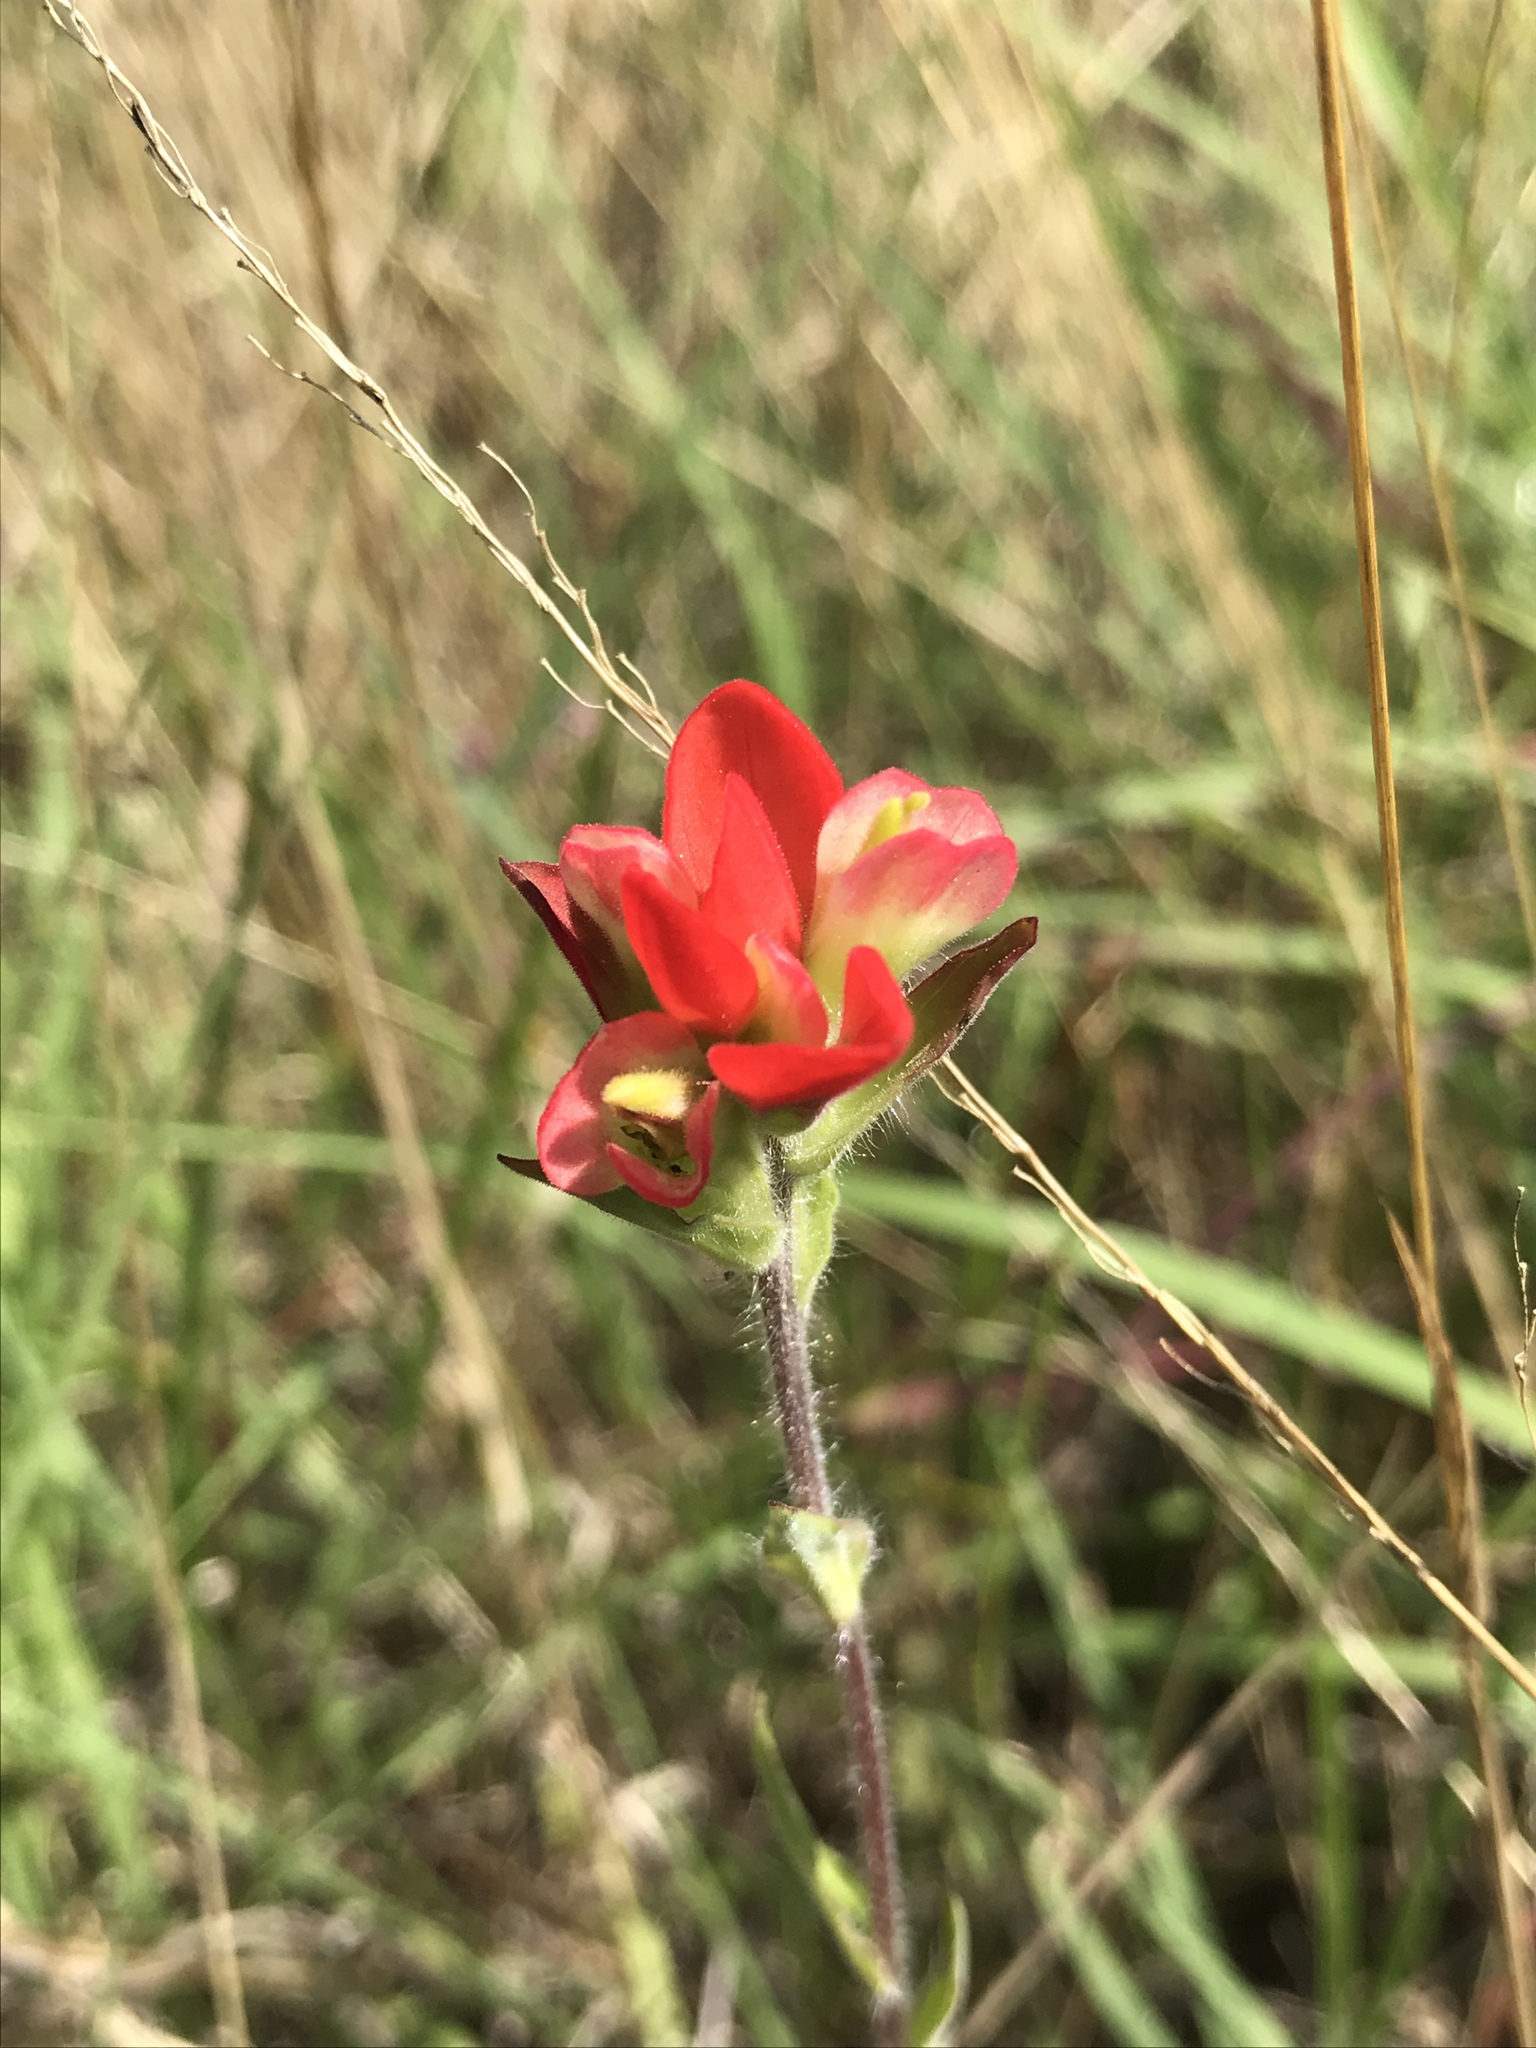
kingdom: Plantae
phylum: Tracheophyta
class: Magnoliopsida
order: Lamiales
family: Orobanchaceae
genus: Castilleja
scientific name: Castilleja indivisa
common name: Texas paintbrush
